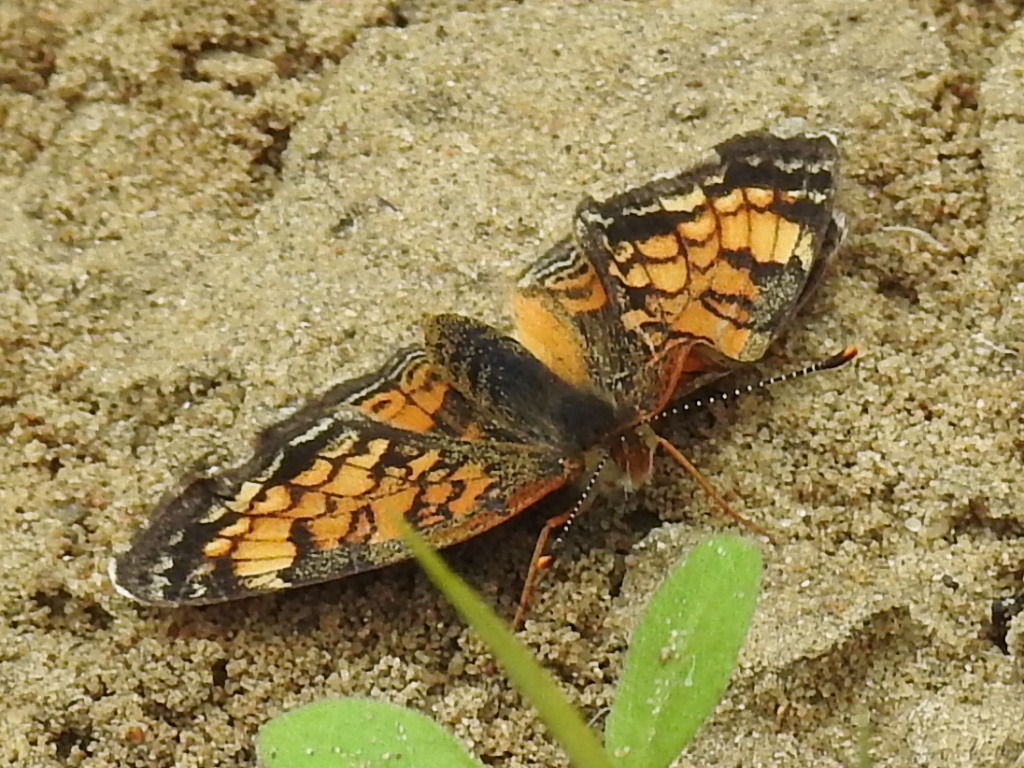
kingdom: Animalia
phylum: Arthropoda
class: Insecta
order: Lepidoptera
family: Nymphalidae
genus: Phyciodes
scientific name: Phyciodes tharos
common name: Pearl crescent
